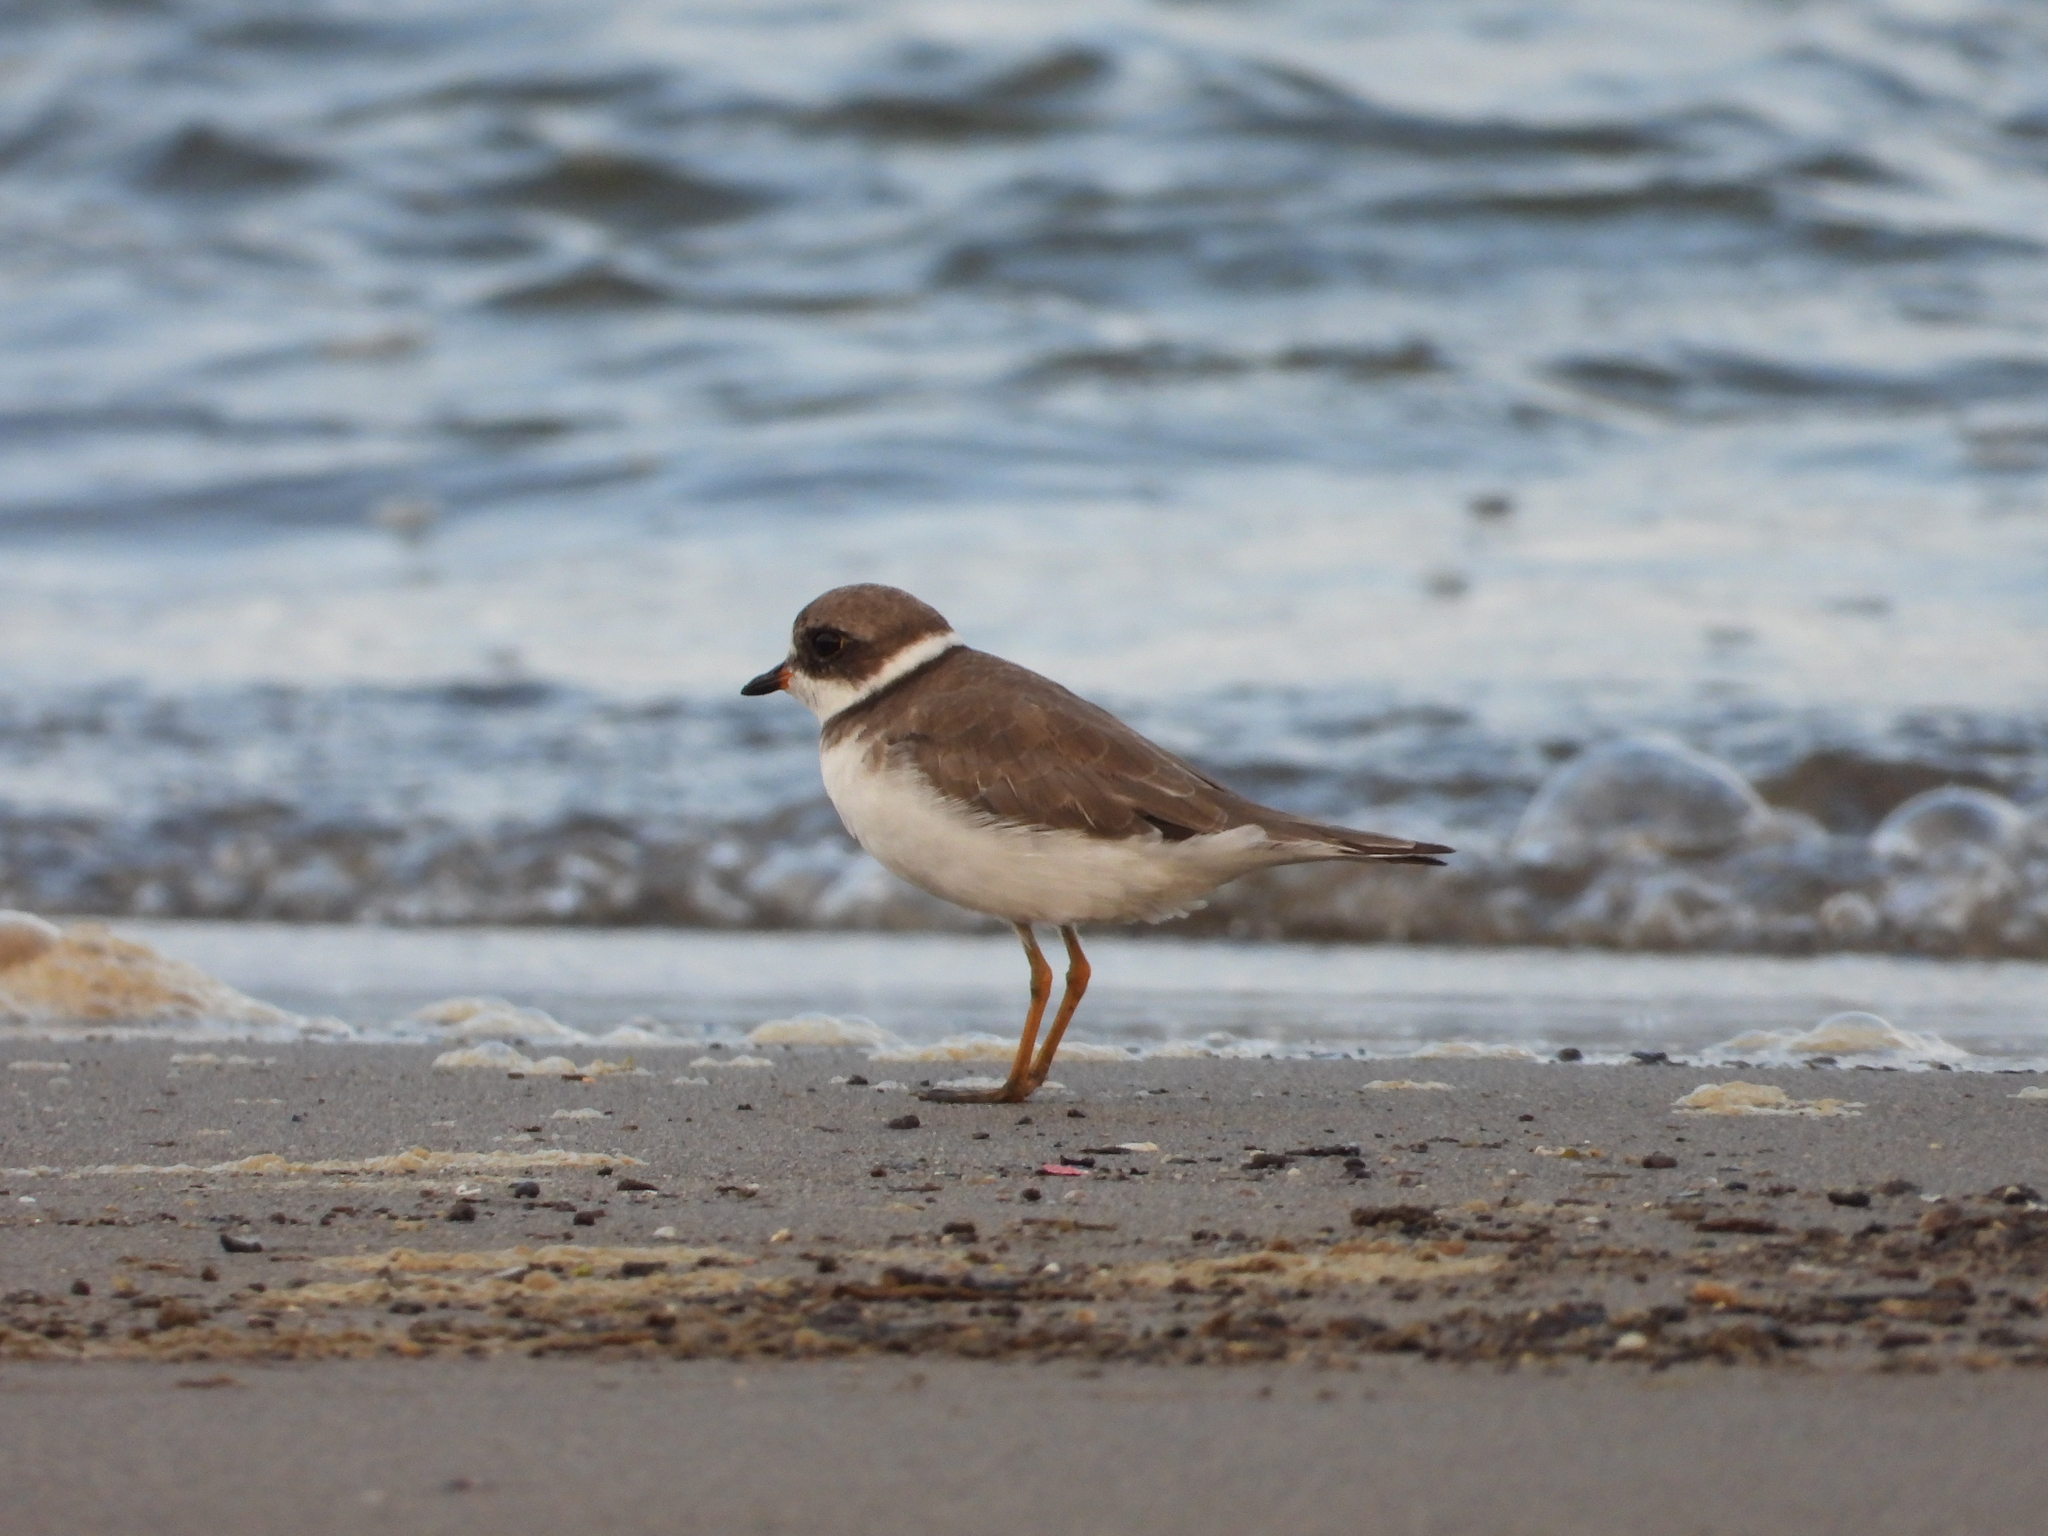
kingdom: Animalia
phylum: Chordata
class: Aves
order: Charadriiformes
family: Charadriidae
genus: Charadrius
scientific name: Charadrius semipalmatus
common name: Semipalmated plover
